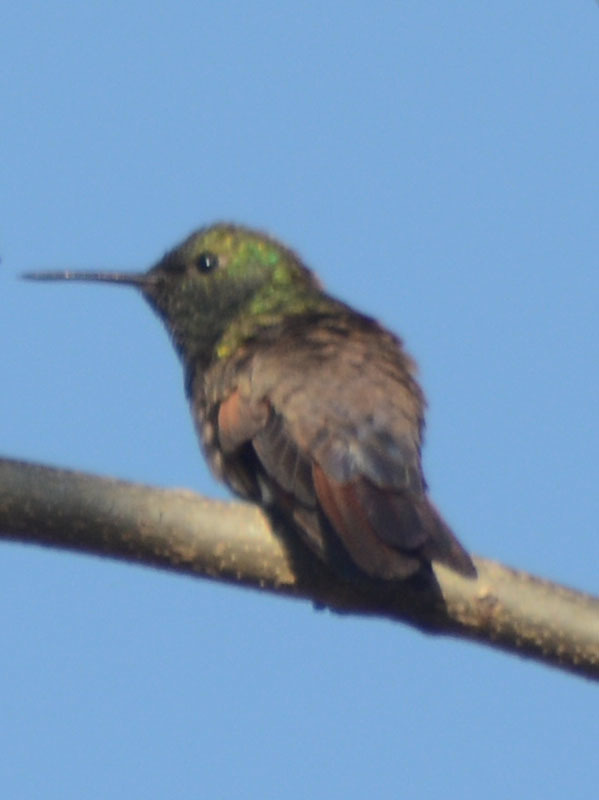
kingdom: Animalia
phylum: Chordata
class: Aves
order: Apodiformes
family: Trochilidae
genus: Saucerottia
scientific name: Saucerottia beryllina
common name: Berylline hummingbird
